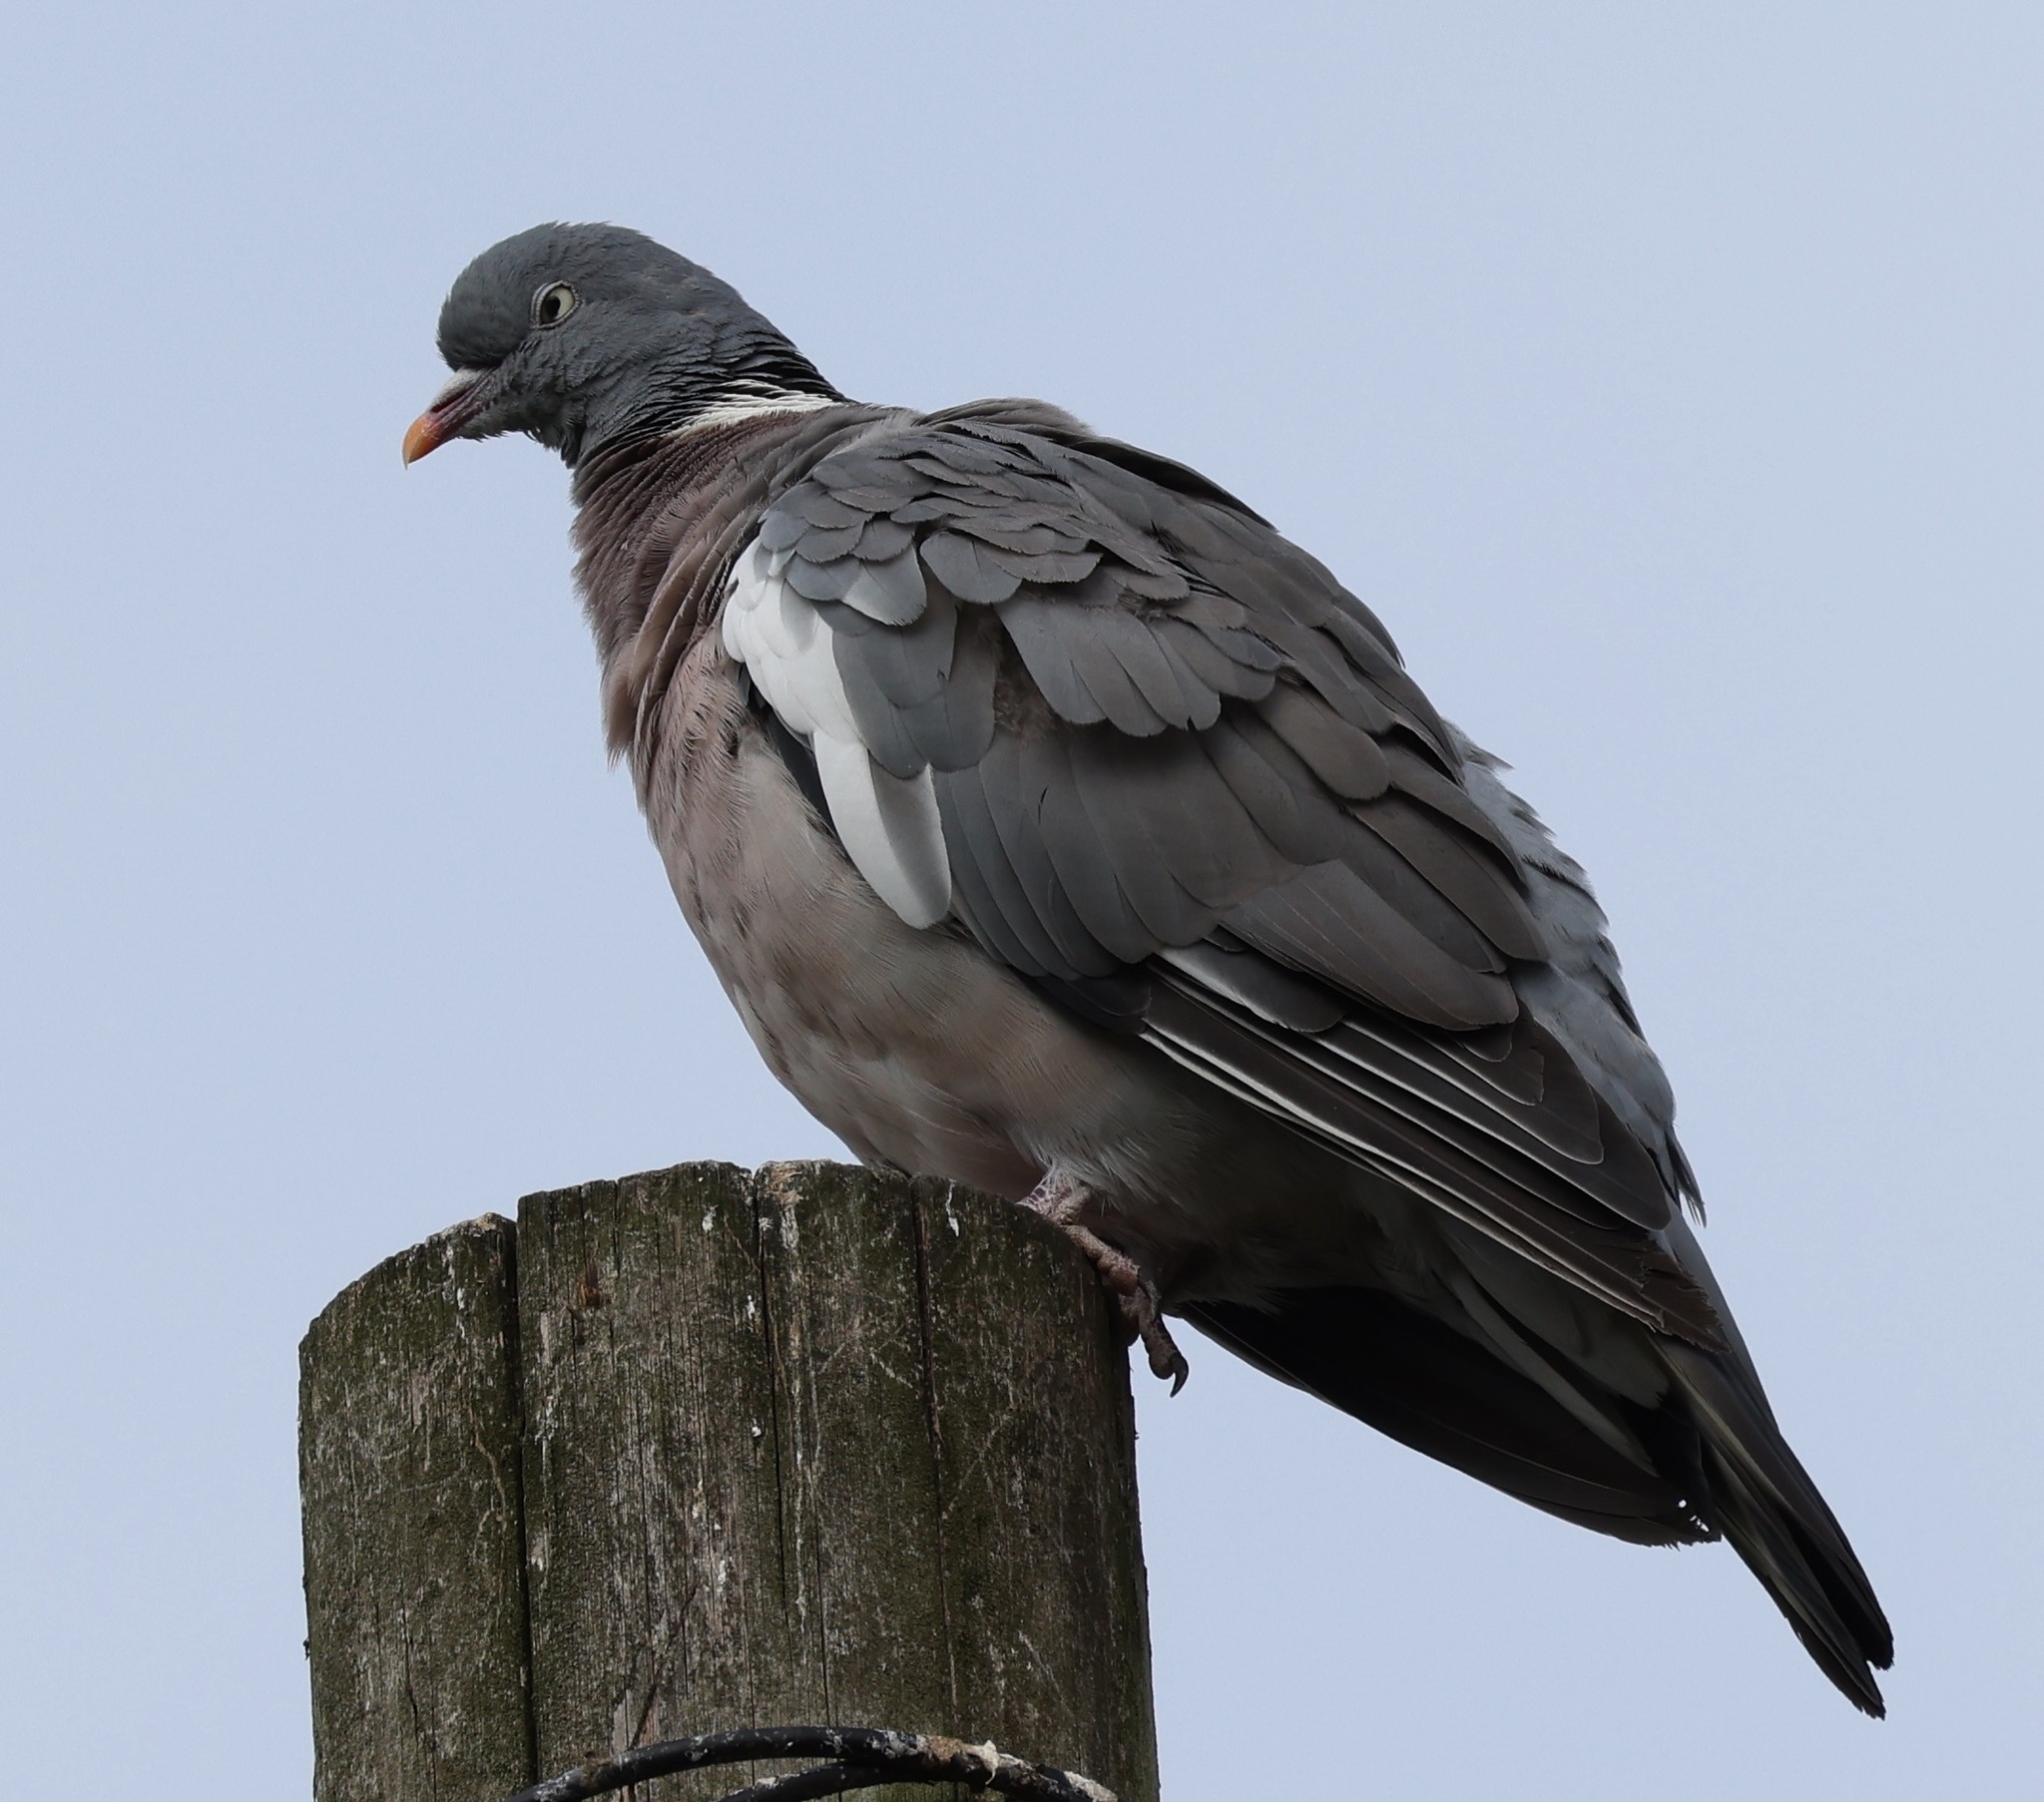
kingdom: Animalia
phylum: Chordata
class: Aves
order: Columbiformes
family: Columbidae
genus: Columba
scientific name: Columba palumbus
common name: Common wood pigeon
